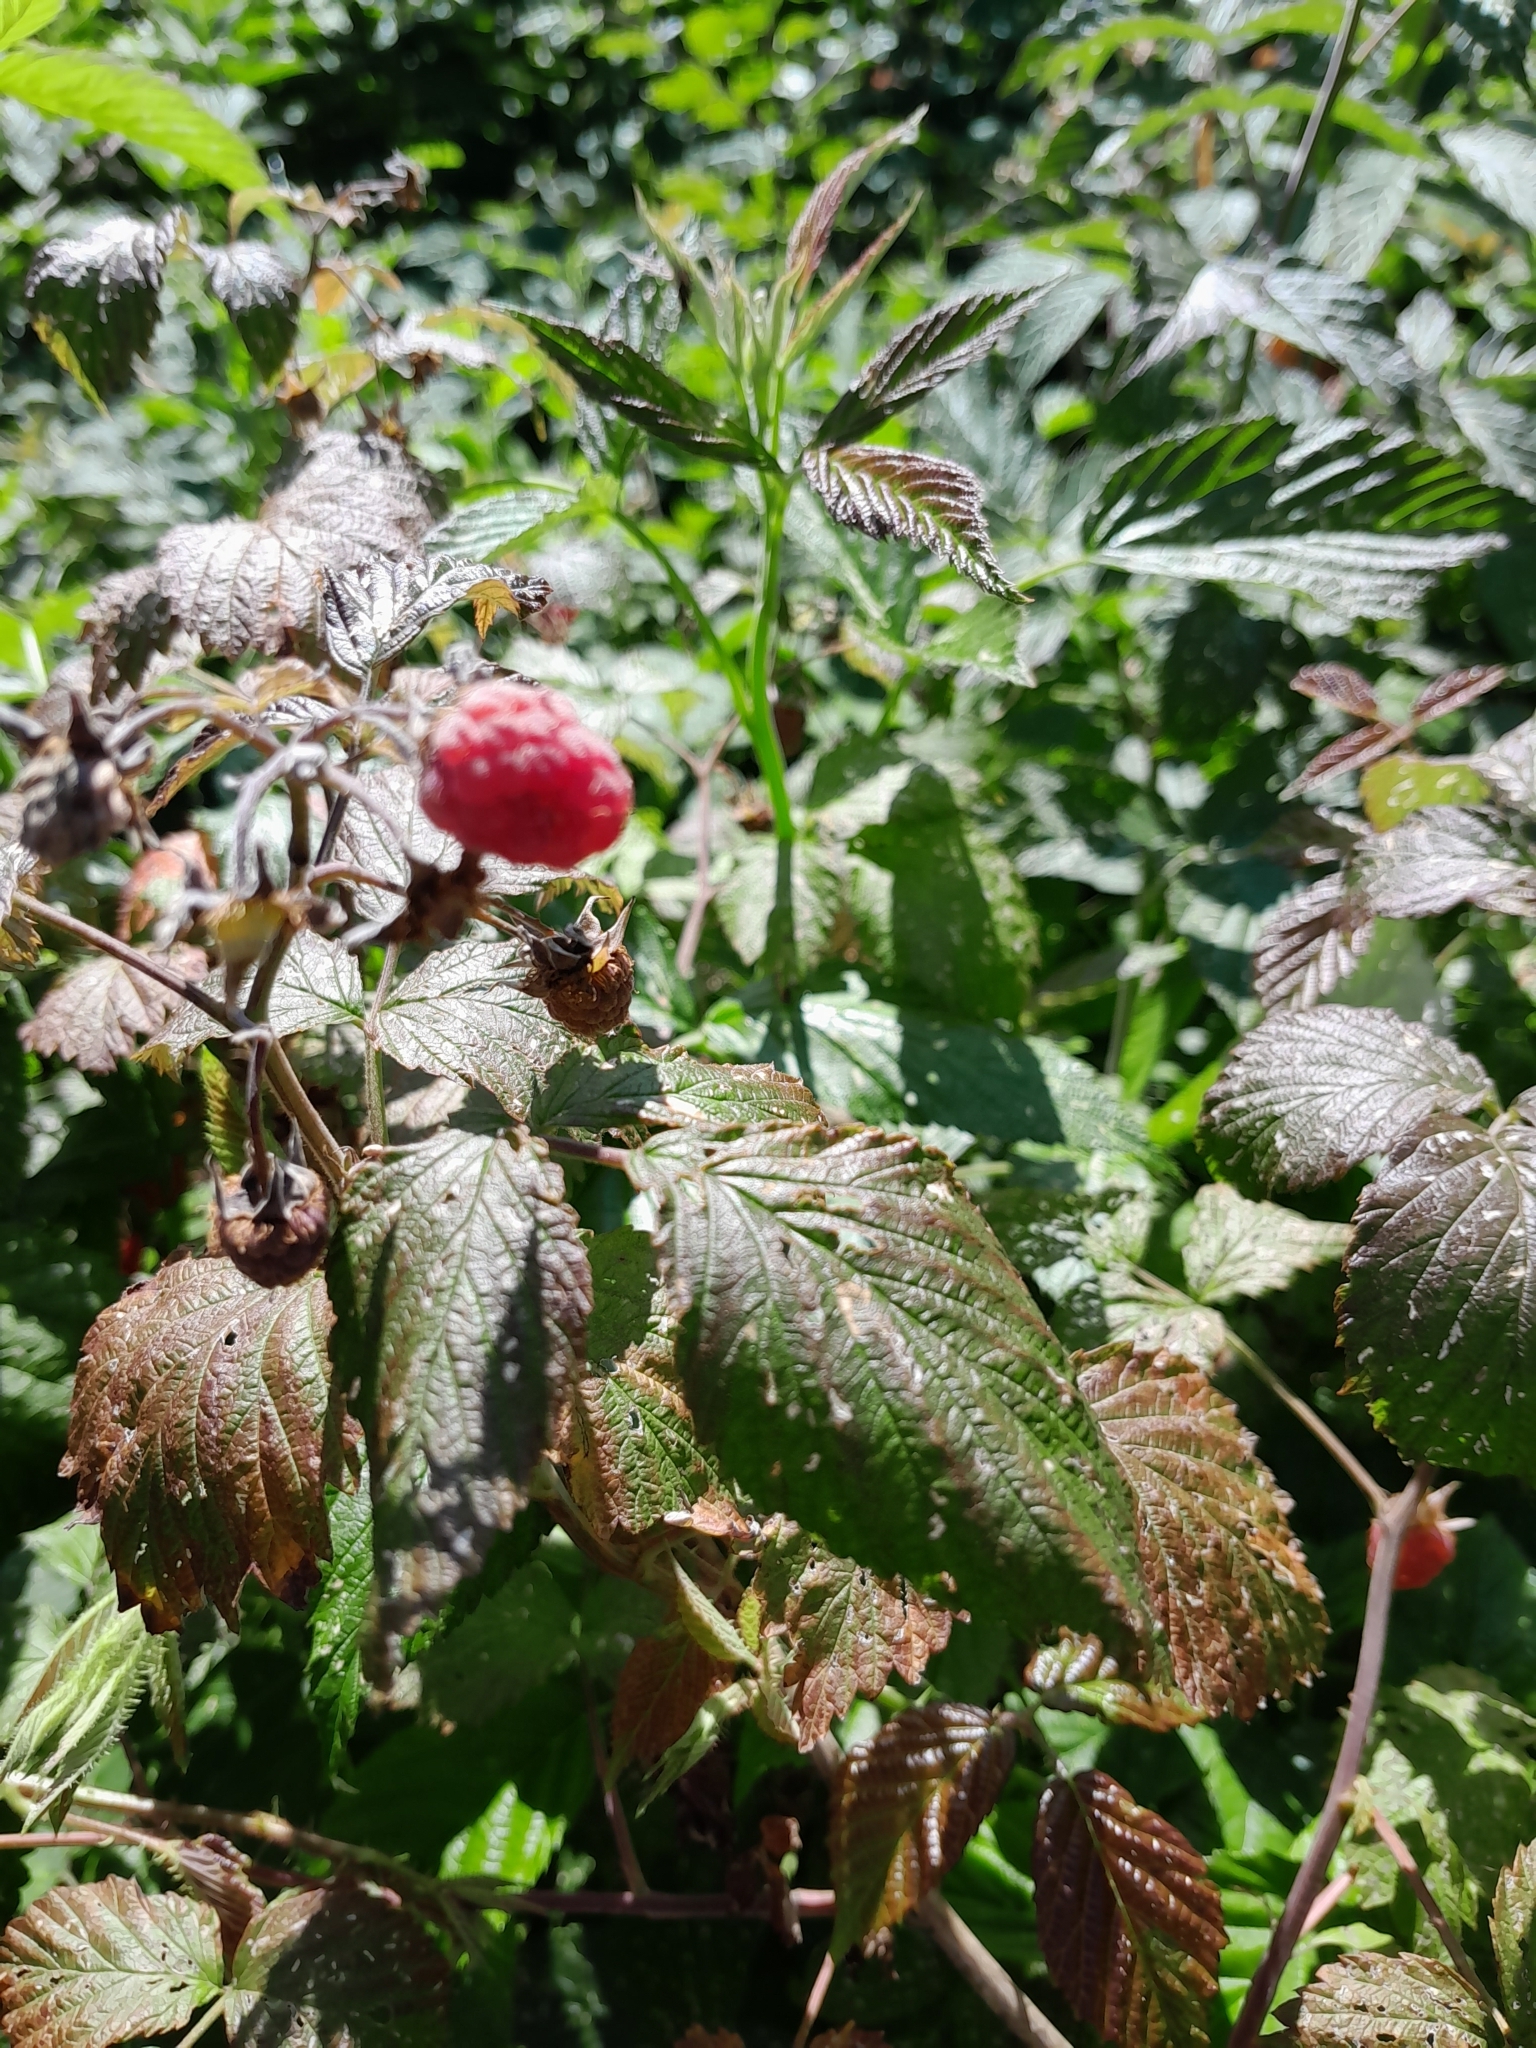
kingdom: Plantae
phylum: Tracheophyta
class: Magnoliopsida
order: Rosales
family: Rosaceae
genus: Rubus
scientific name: Rubus idaeus
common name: Raspberry
